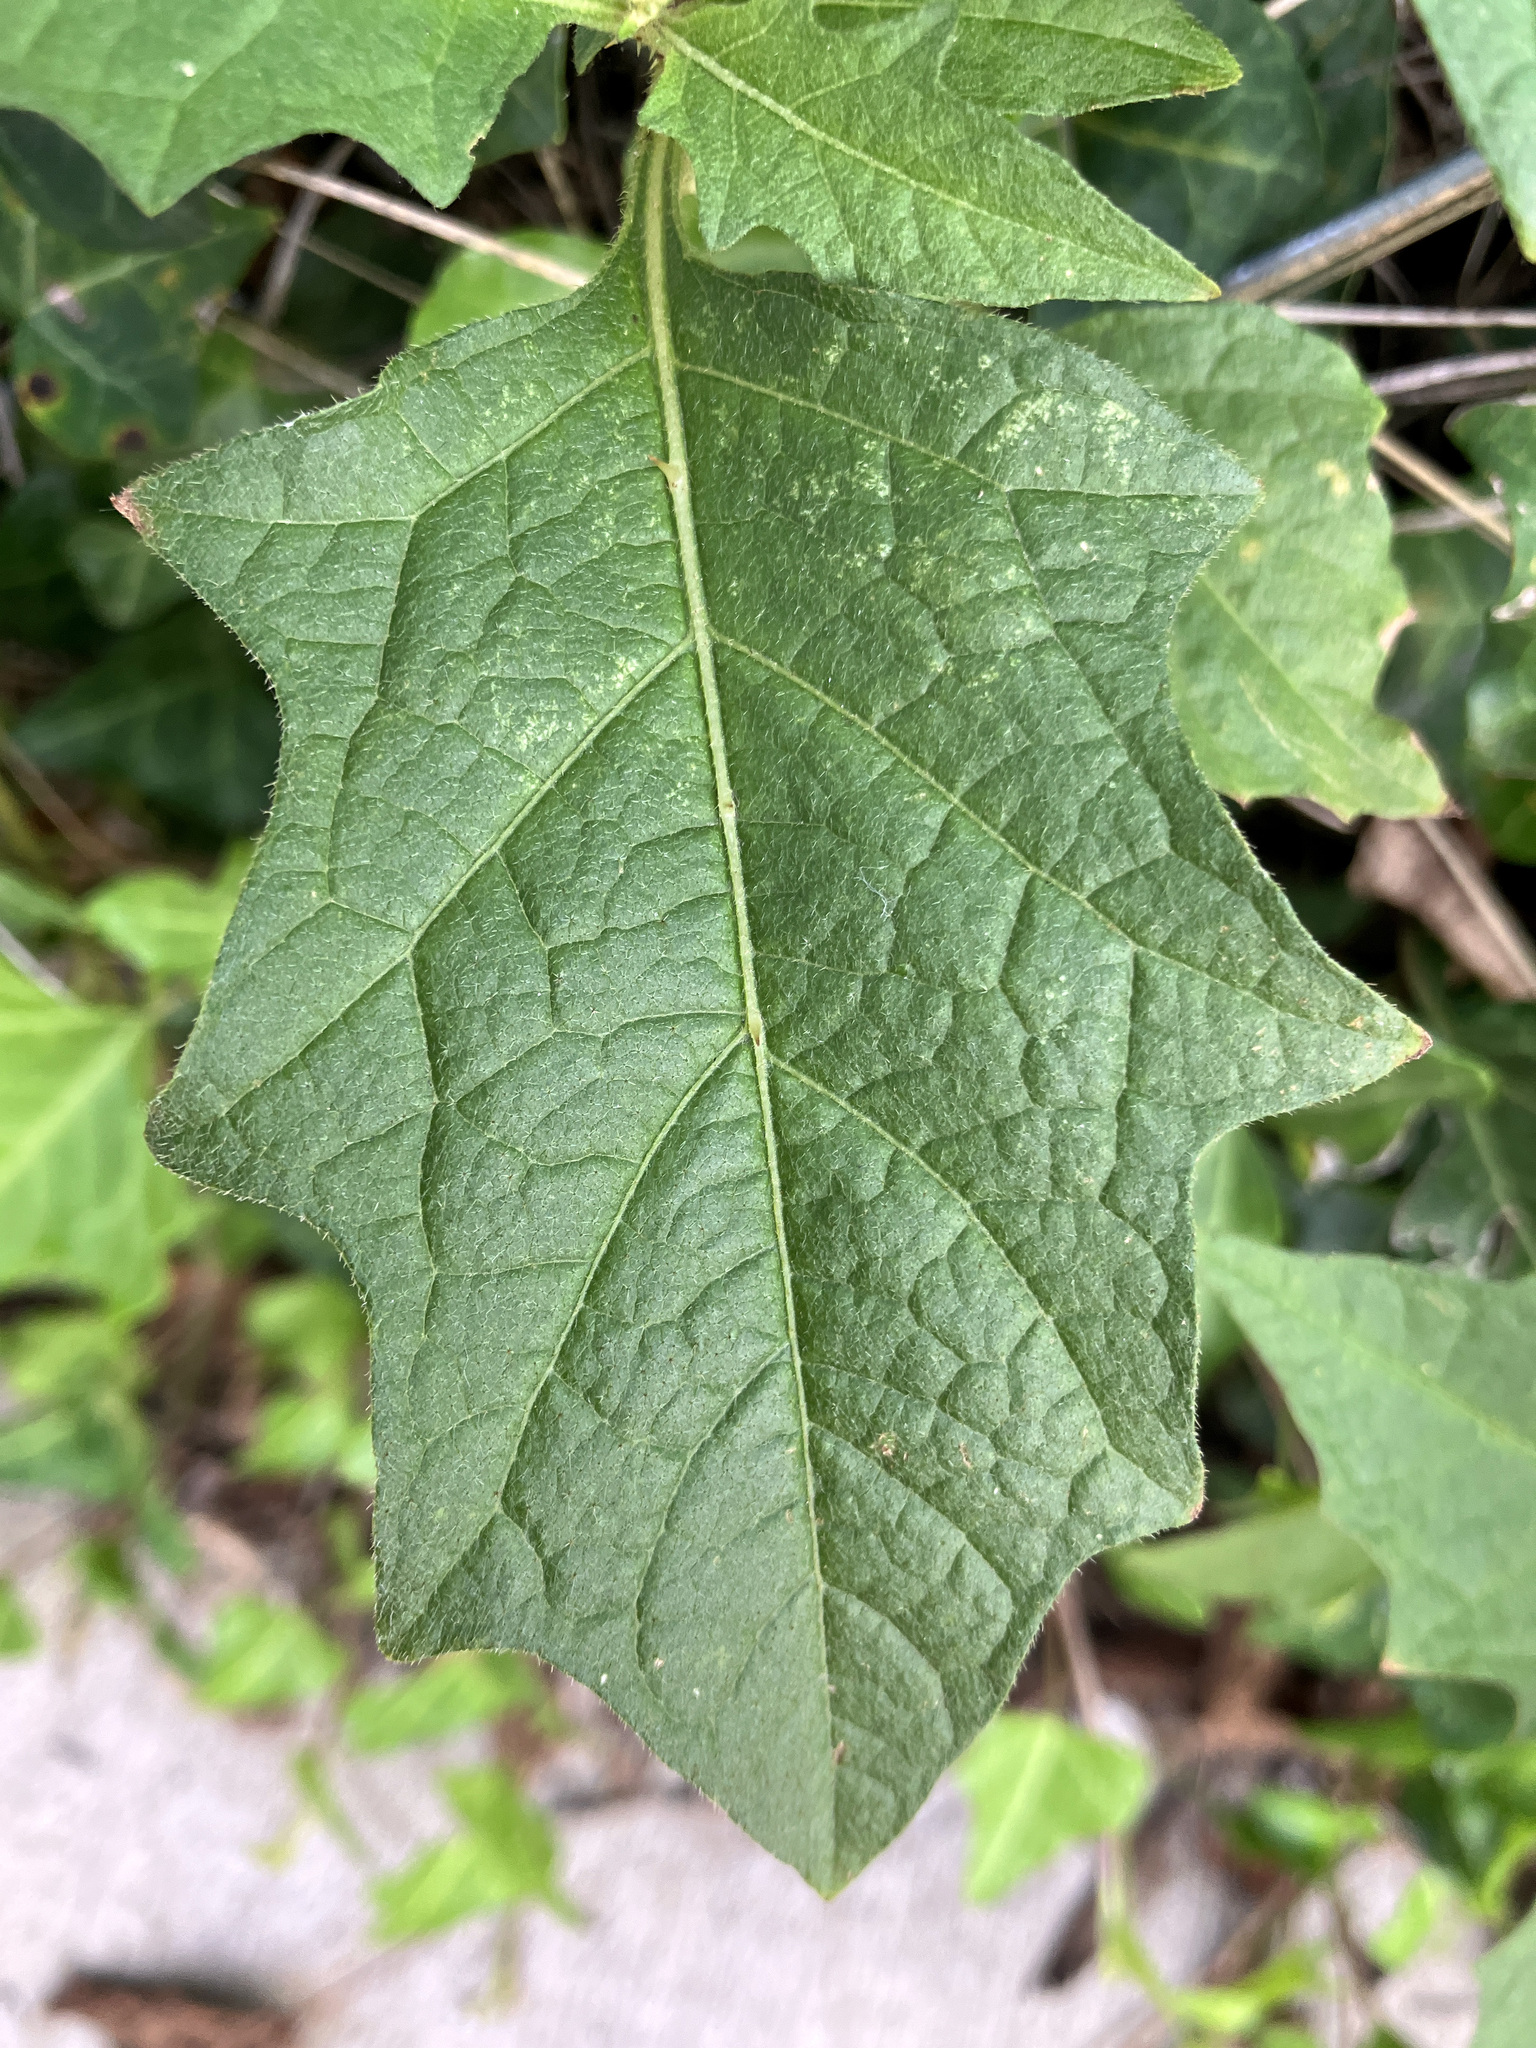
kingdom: Plantae
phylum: Tracheophyta
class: Magnoliopsida
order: Solanales
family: Solanaceae
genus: Solanum
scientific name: Solanum carolinense
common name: Horse-nettle
